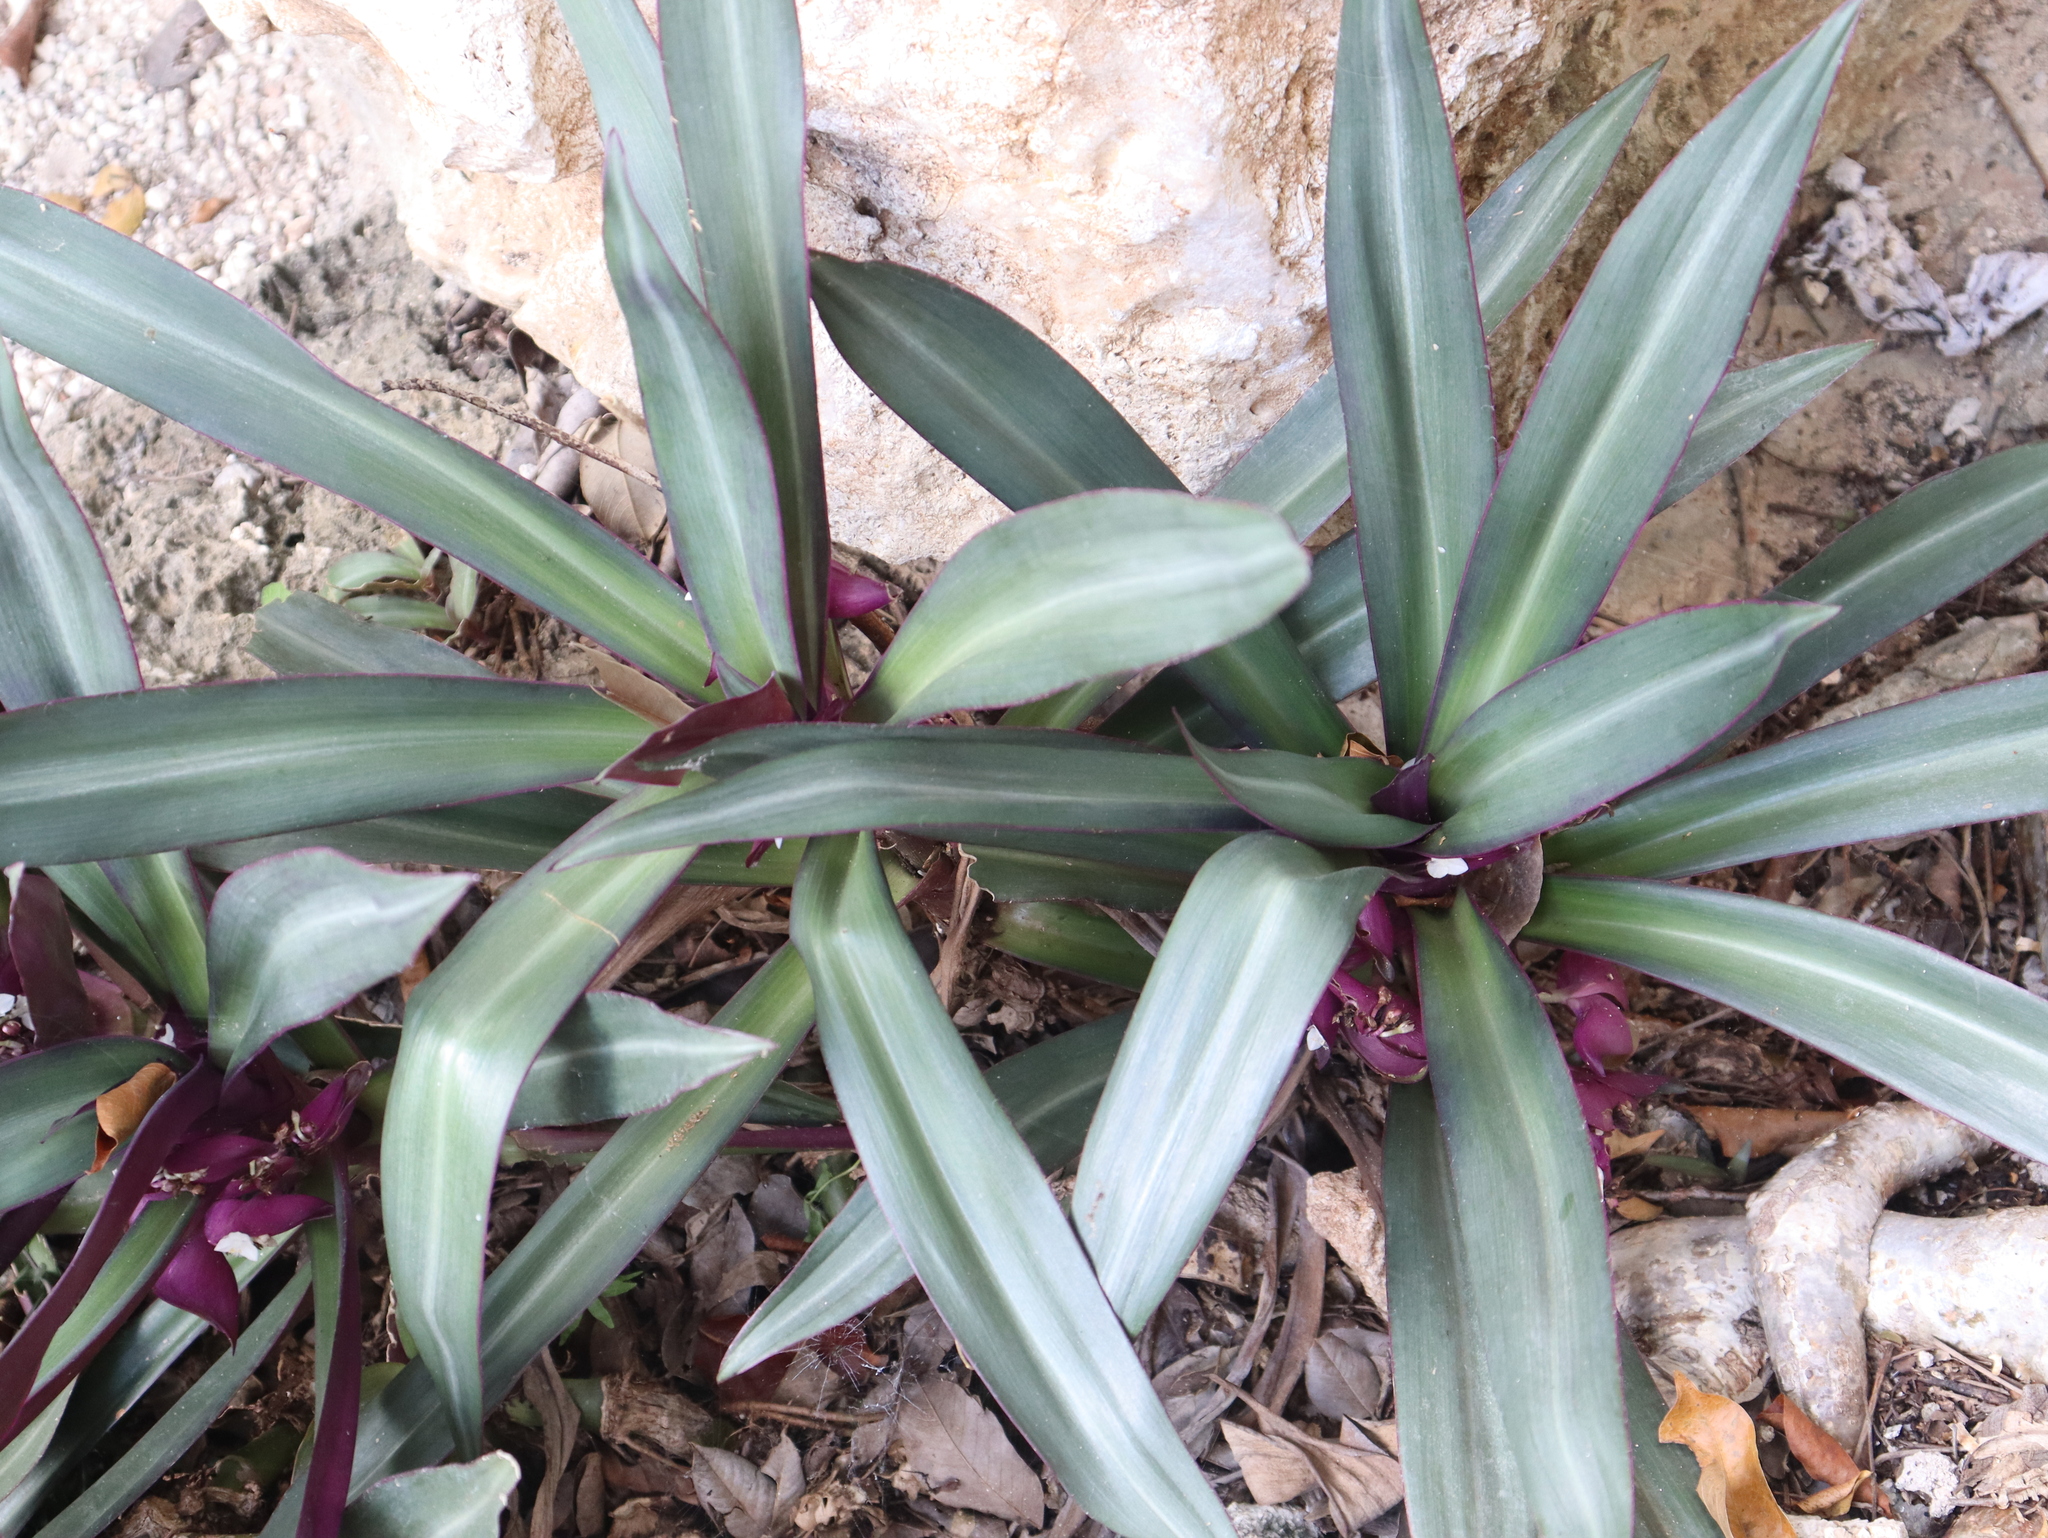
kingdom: Plantae
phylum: Tracheophyta
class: Liliopsida
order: Commelinales
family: Commelinaceae
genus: Tradescantia
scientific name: Tradescantia spathacea
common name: Boatlily
